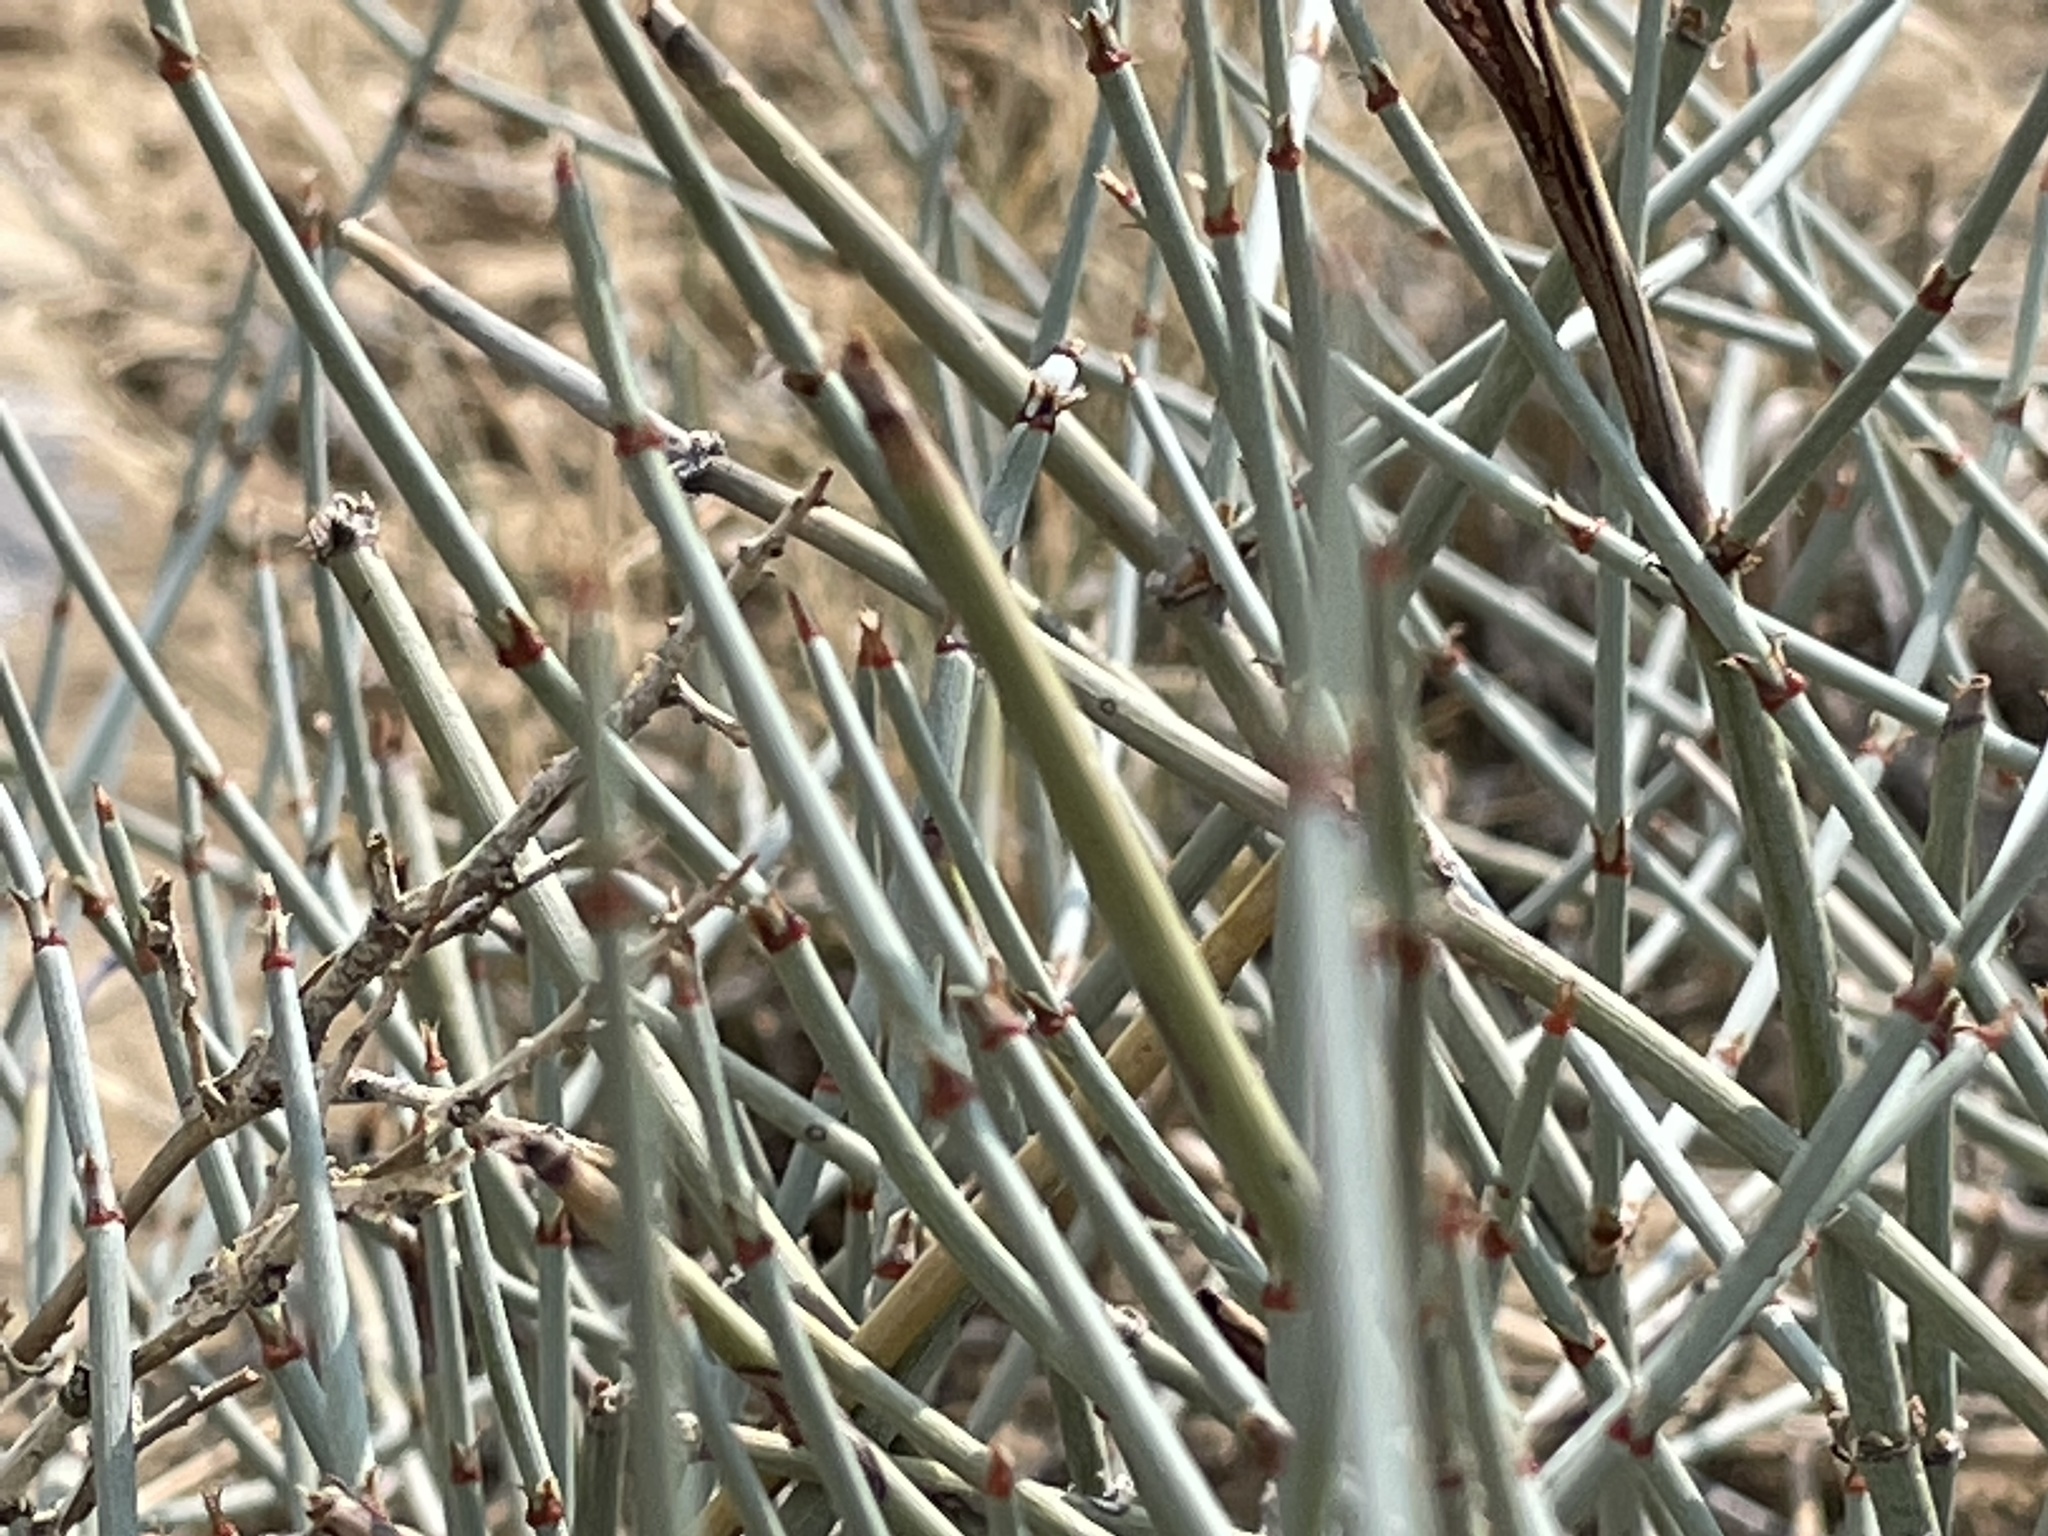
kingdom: Plantae
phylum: Tracheophyta
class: Gnetopsida
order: Ephedrales
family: Ephedraceae
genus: Ephedra
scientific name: Ephedra torreyana
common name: Torrey ephedra
